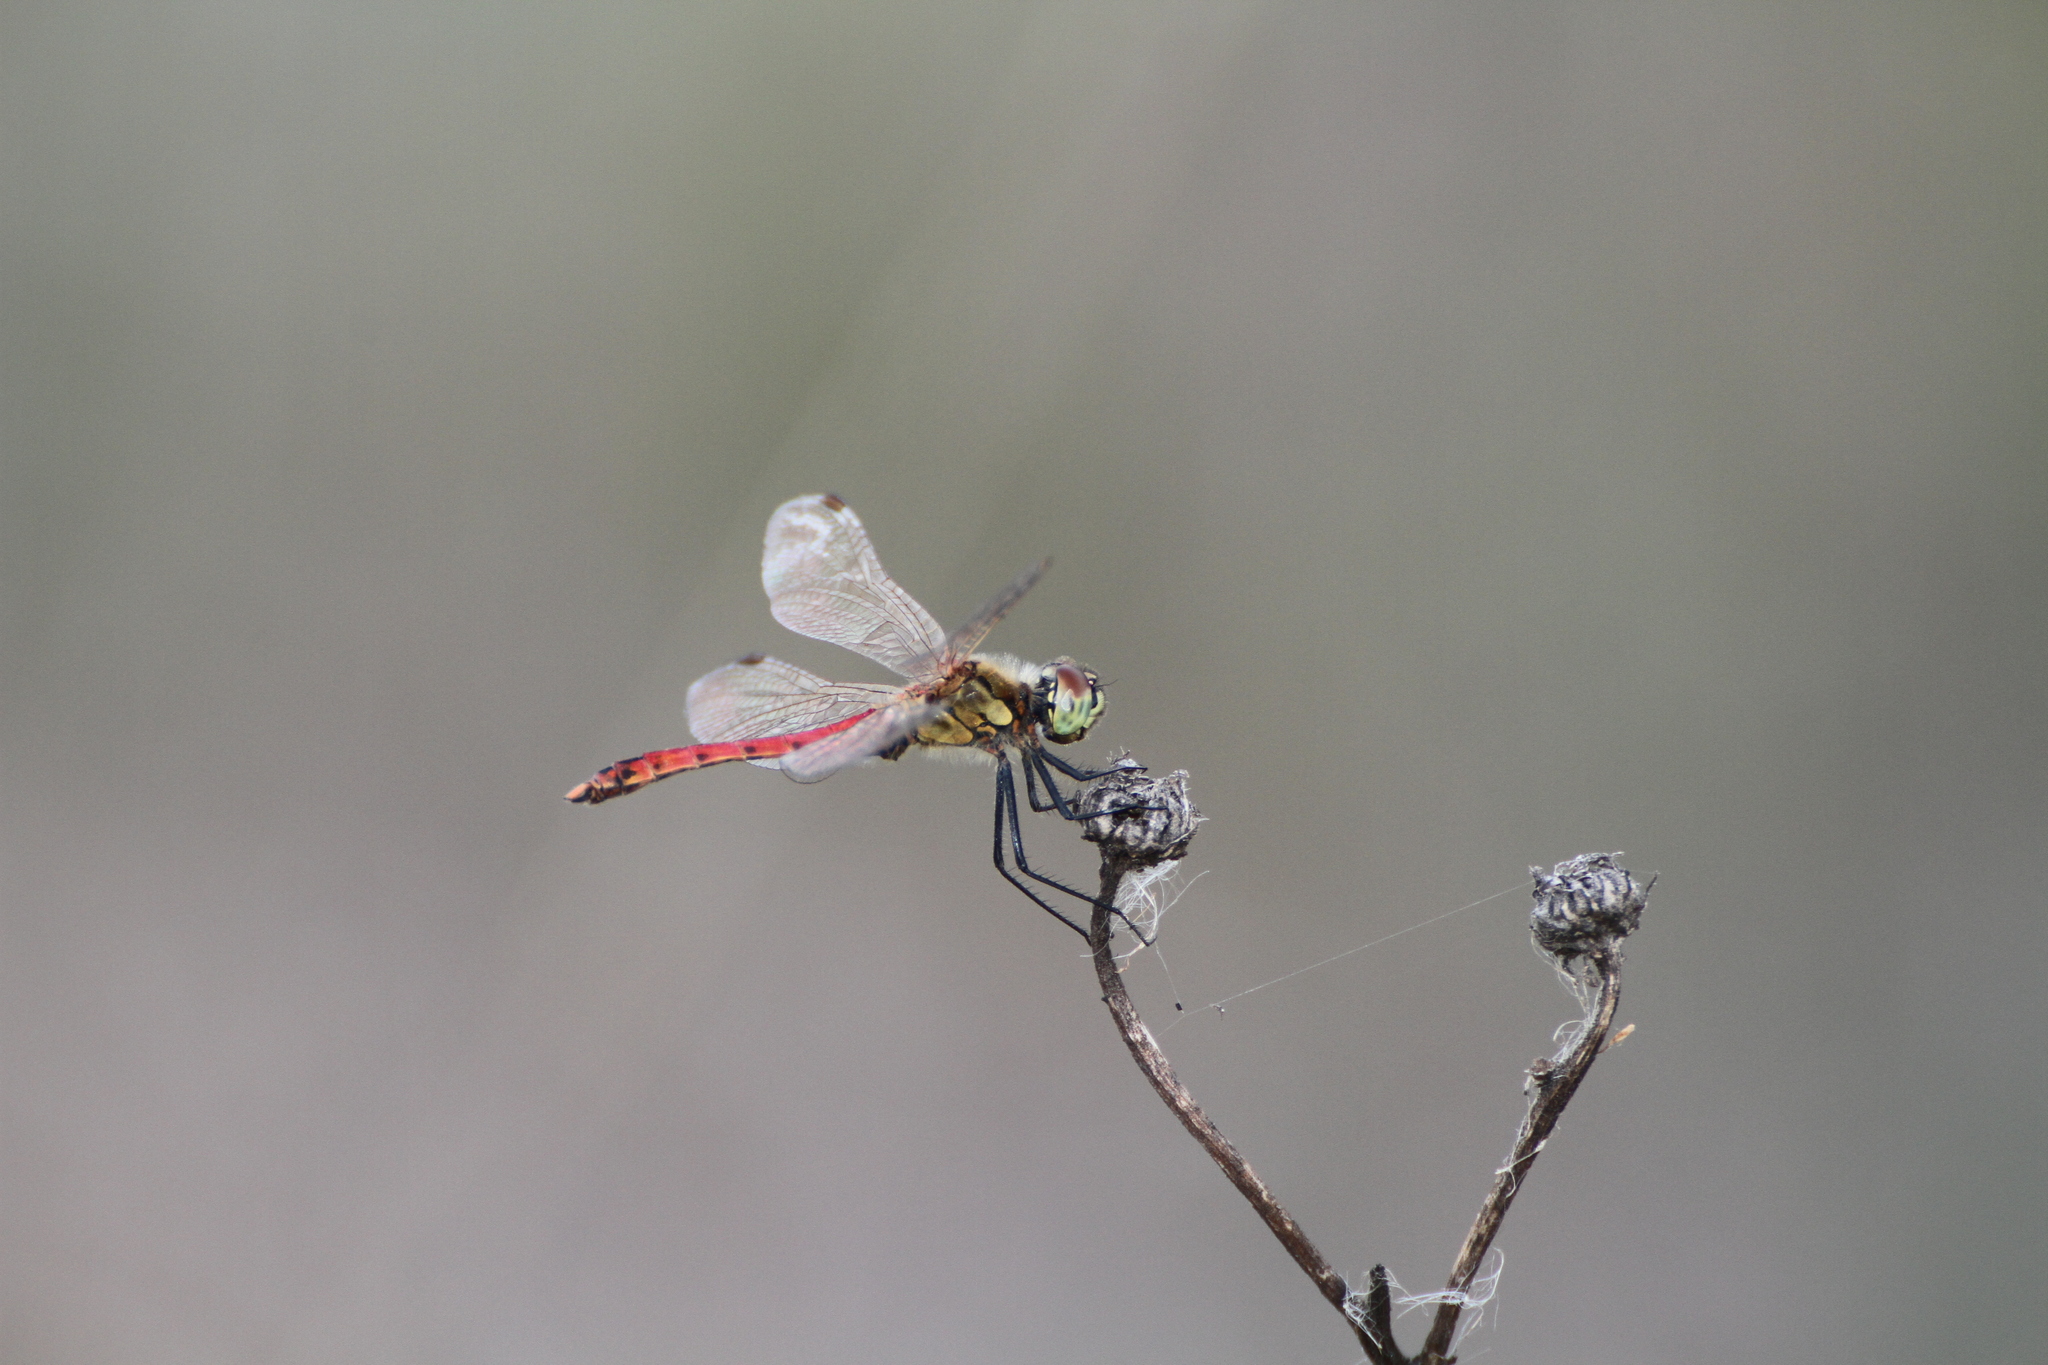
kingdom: Animalia
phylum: Arthropoda
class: Insecta
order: Odonata
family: Libellulidae
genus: Sympetrum
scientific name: Sympetrum depressiusculum
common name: Spotted darter
